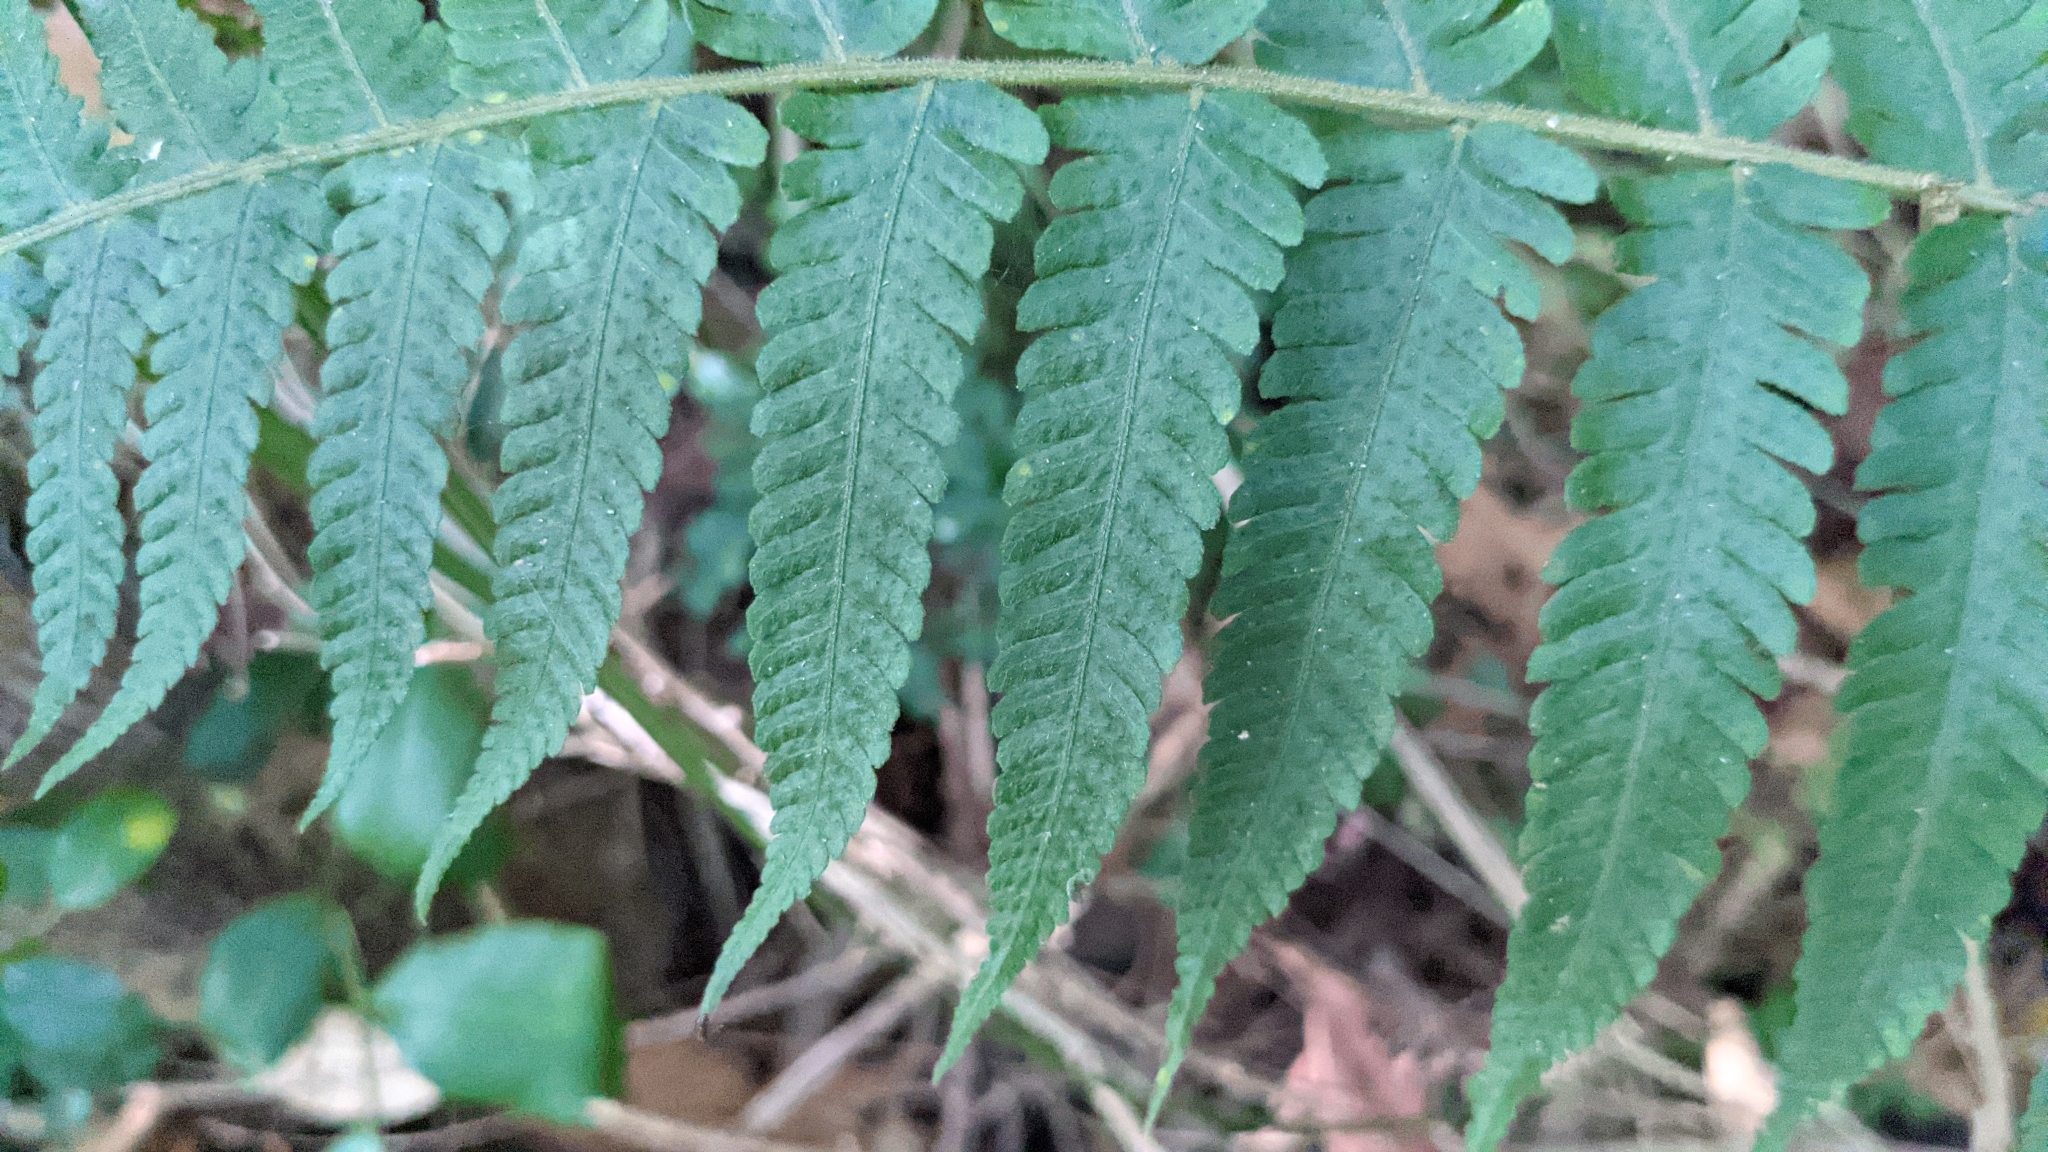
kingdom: Plantae
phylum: Tracheophyta
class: Polypodiopsida
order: Polypodiales
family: Thelypteridaceae
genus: Christella
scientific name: Christella dentata
